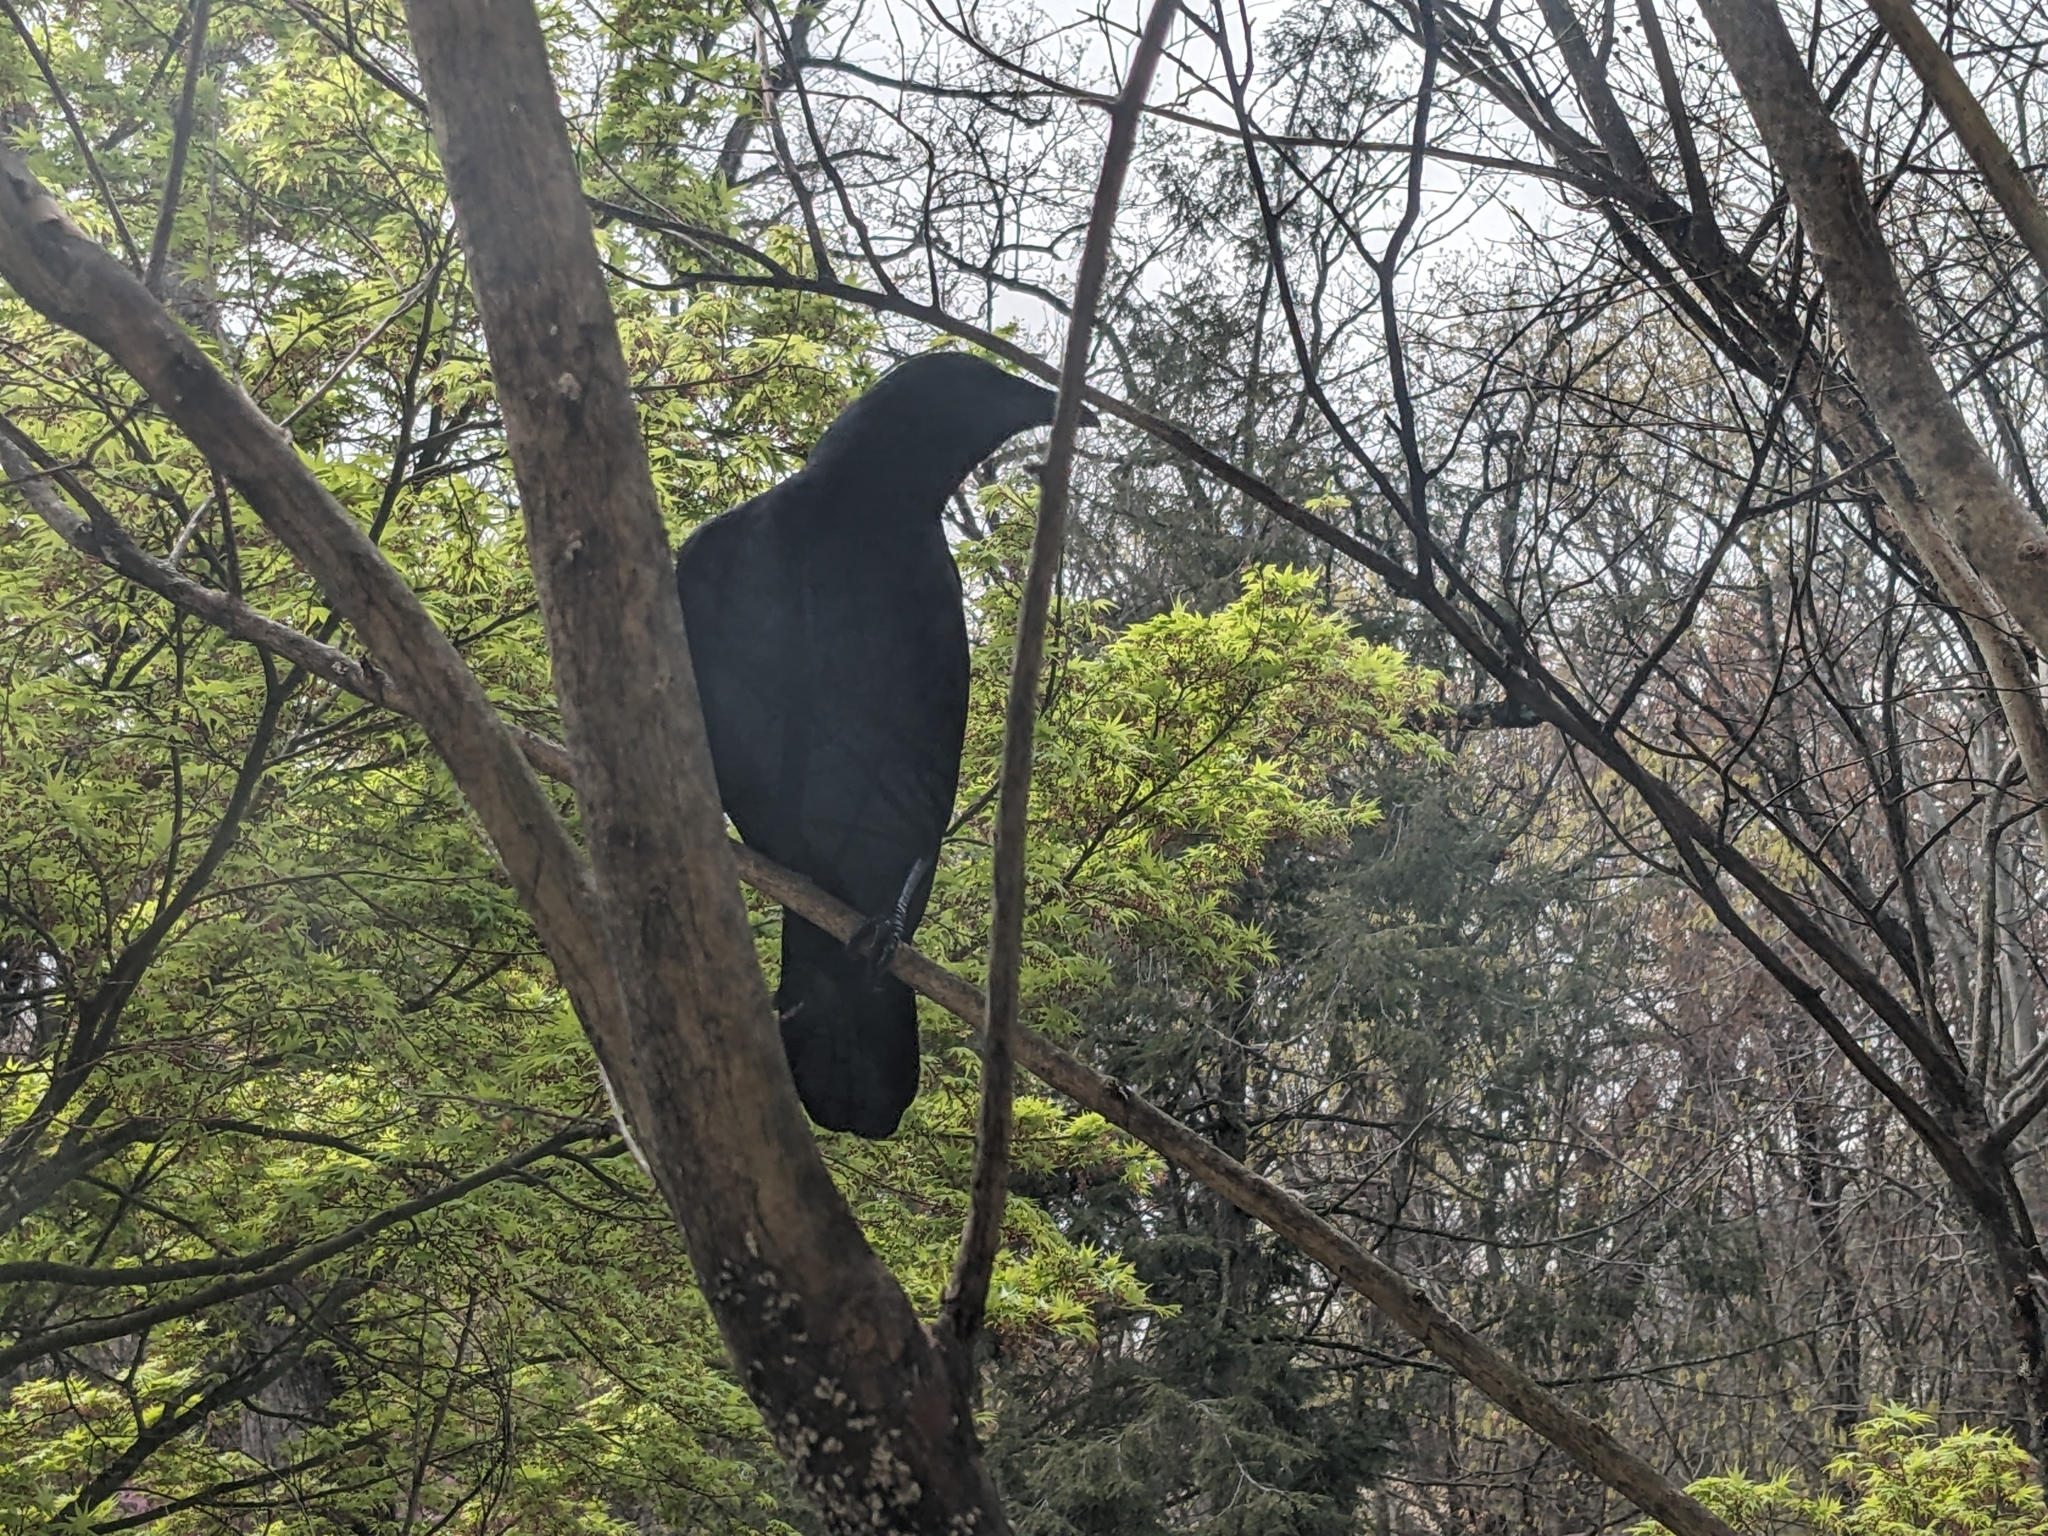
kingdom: Animalia
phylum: Chordata
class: Aves
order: Passeriformes
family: Corvidae
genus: Corvus
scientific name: Corvus ossifragus
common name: Fish crow
